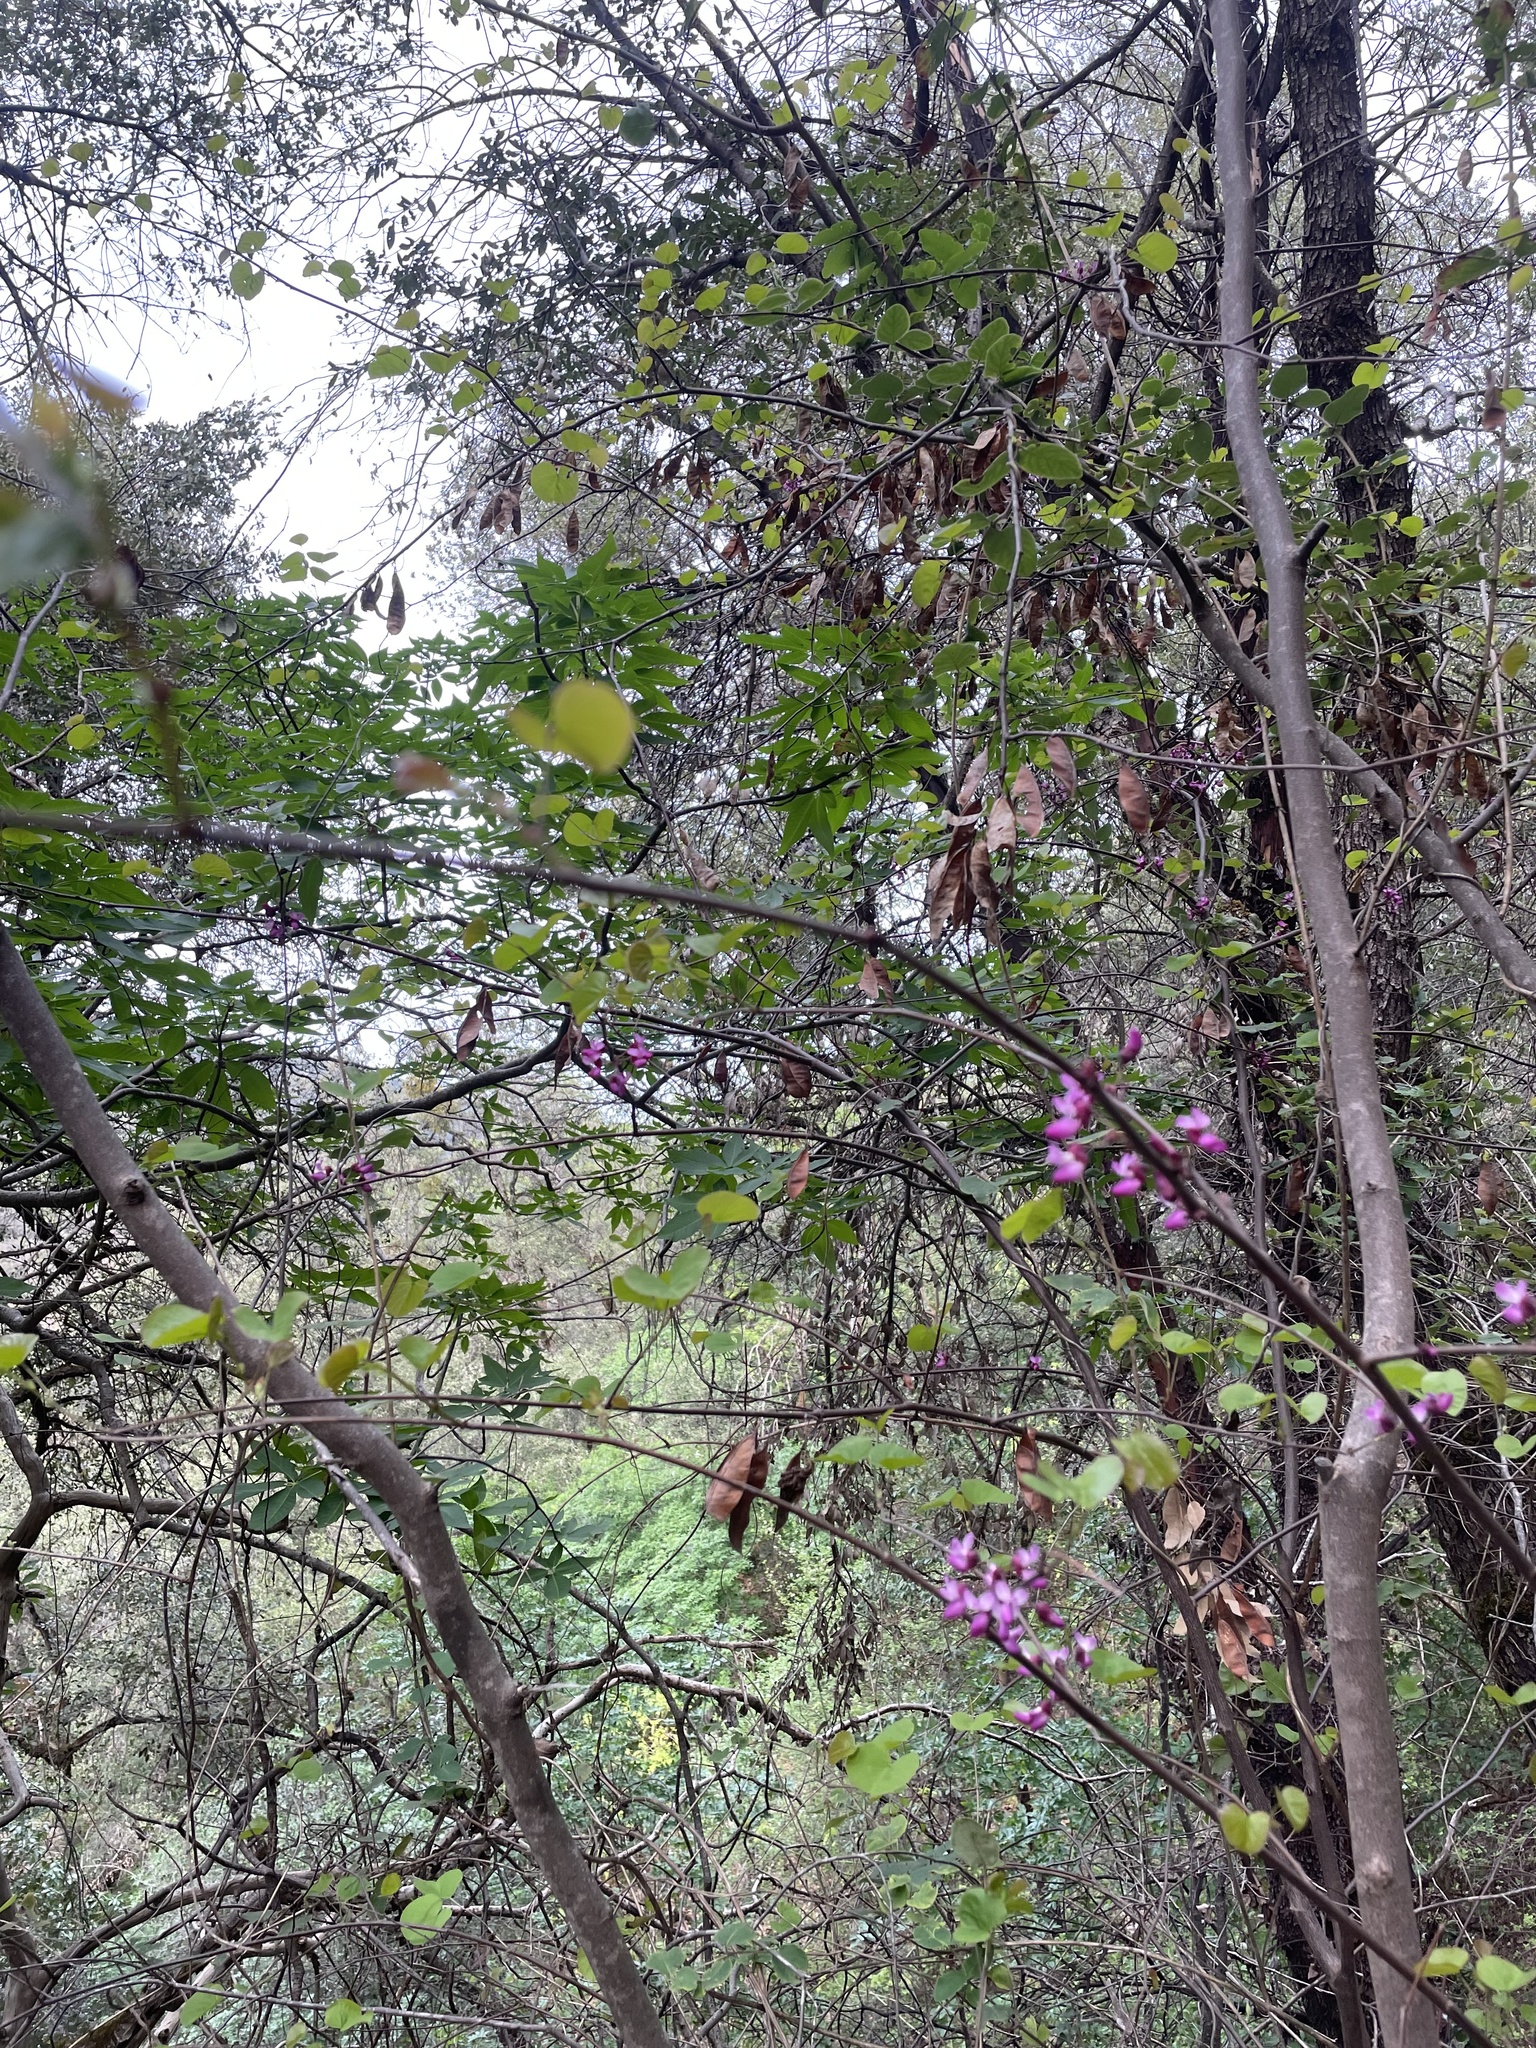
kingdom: Plantae
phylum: Tracheophyta
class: Magnoliopsida
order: Fabales
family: Fabaceae
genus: Cercis
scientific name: Cercis occidentalis
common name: California redbud
